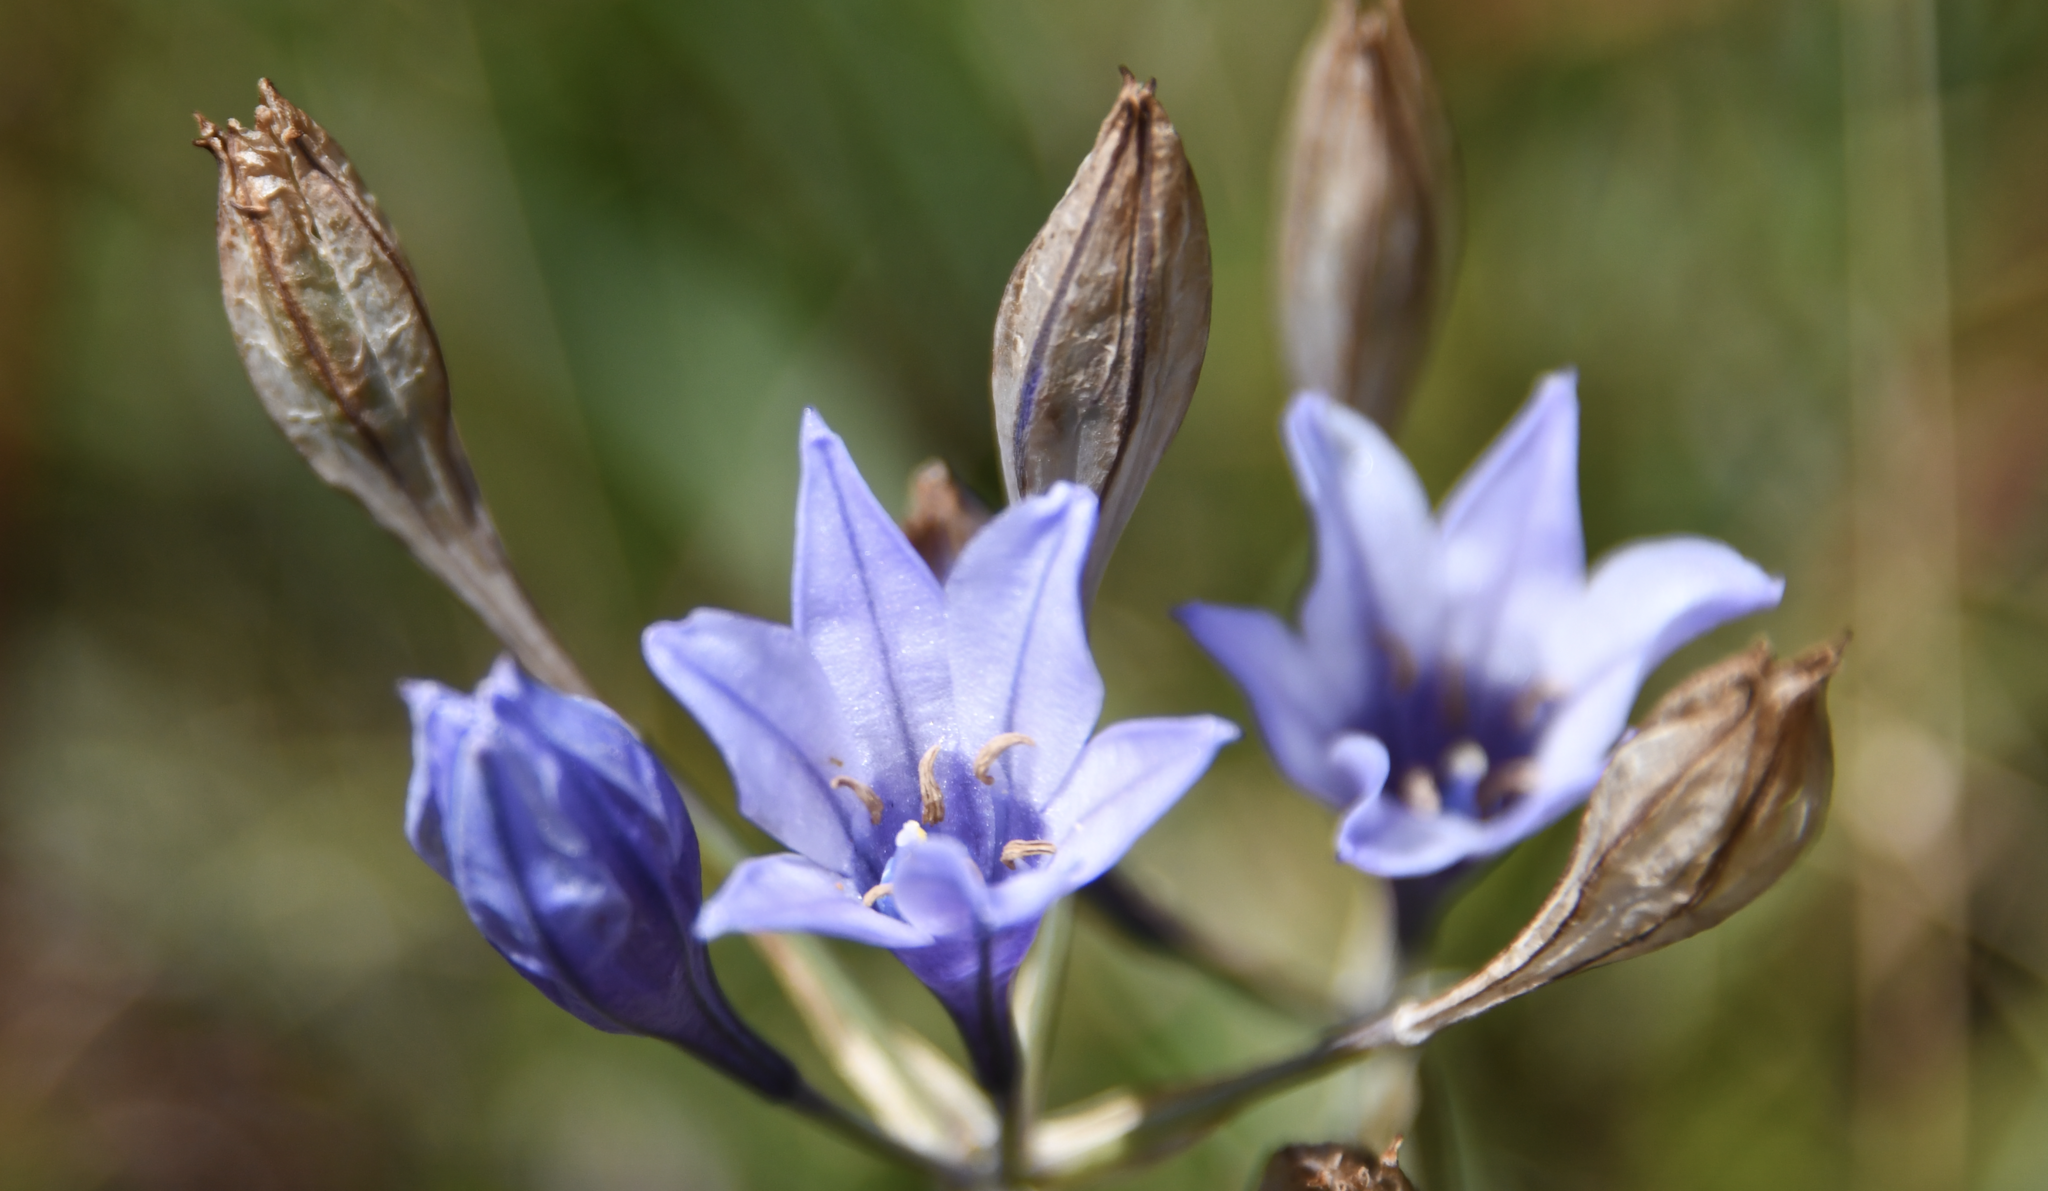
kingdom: Plantae
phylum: Tracheophyta
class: Liliopsida
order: Asparagales
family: Asparagaceae
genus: Triteleia
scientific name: Triteleia laxa
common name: Triplet-lily
